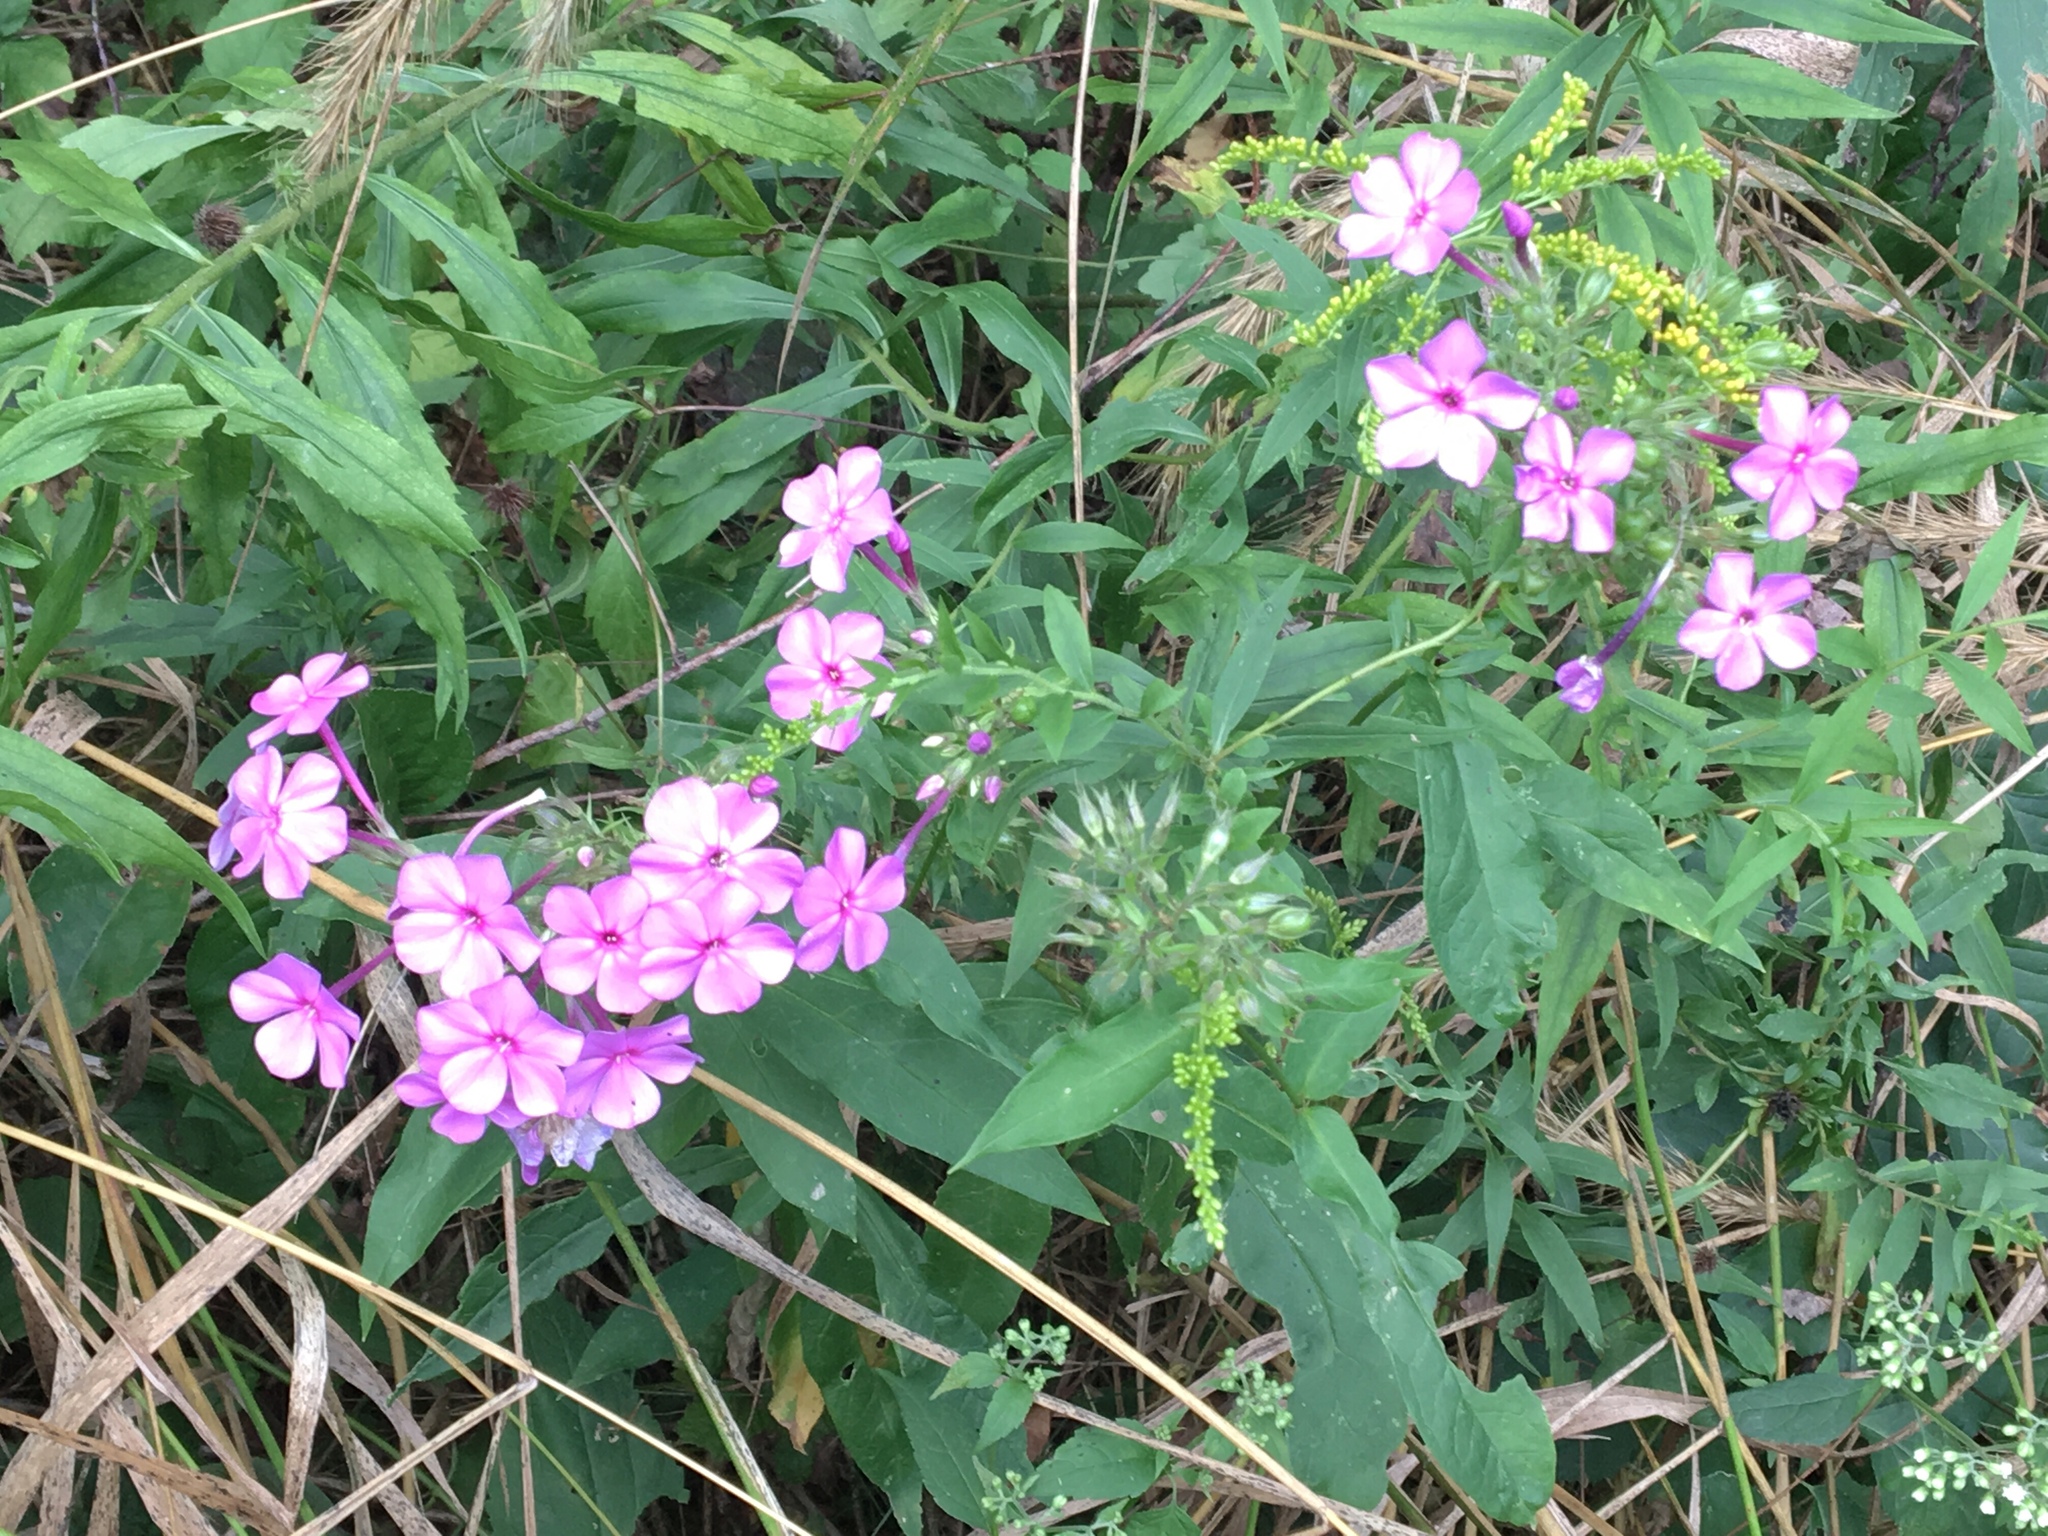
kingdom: Plantae
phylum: Tracheophyta
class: Magnoliopsida
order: Ericales
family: Polemoniaceae
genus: Phlox
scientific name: Phlox paniculata
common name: Fall phlox
